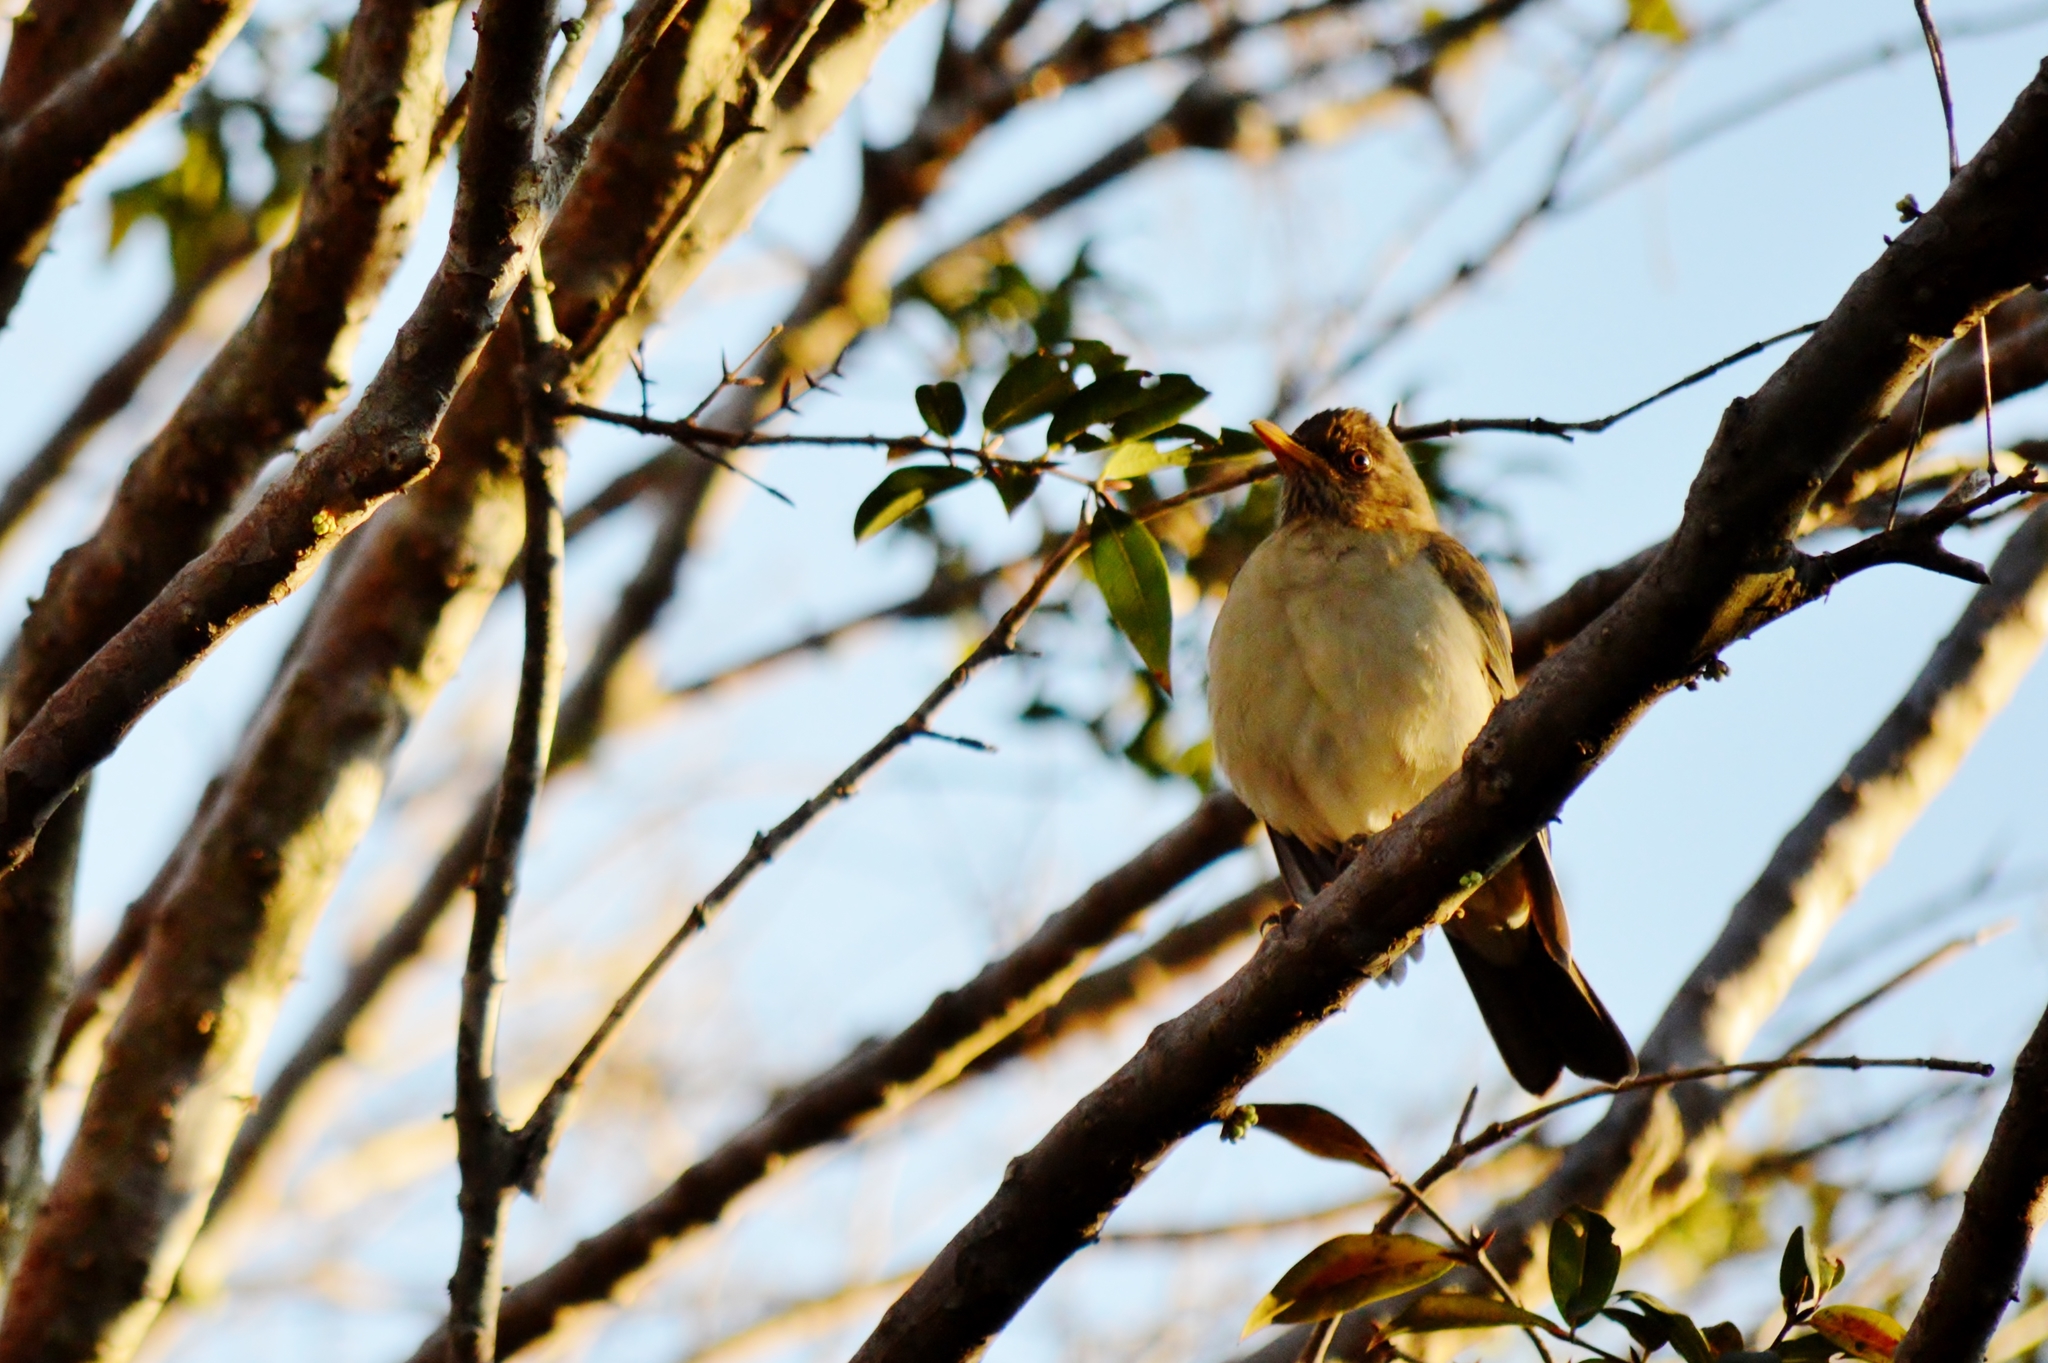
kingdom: Animalia
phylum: Chordata
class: Aves
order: Passeriformes
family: Turdidae
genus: Turdus
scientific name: Turdus amaurochalinus
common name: Creamy-bellied thrush
